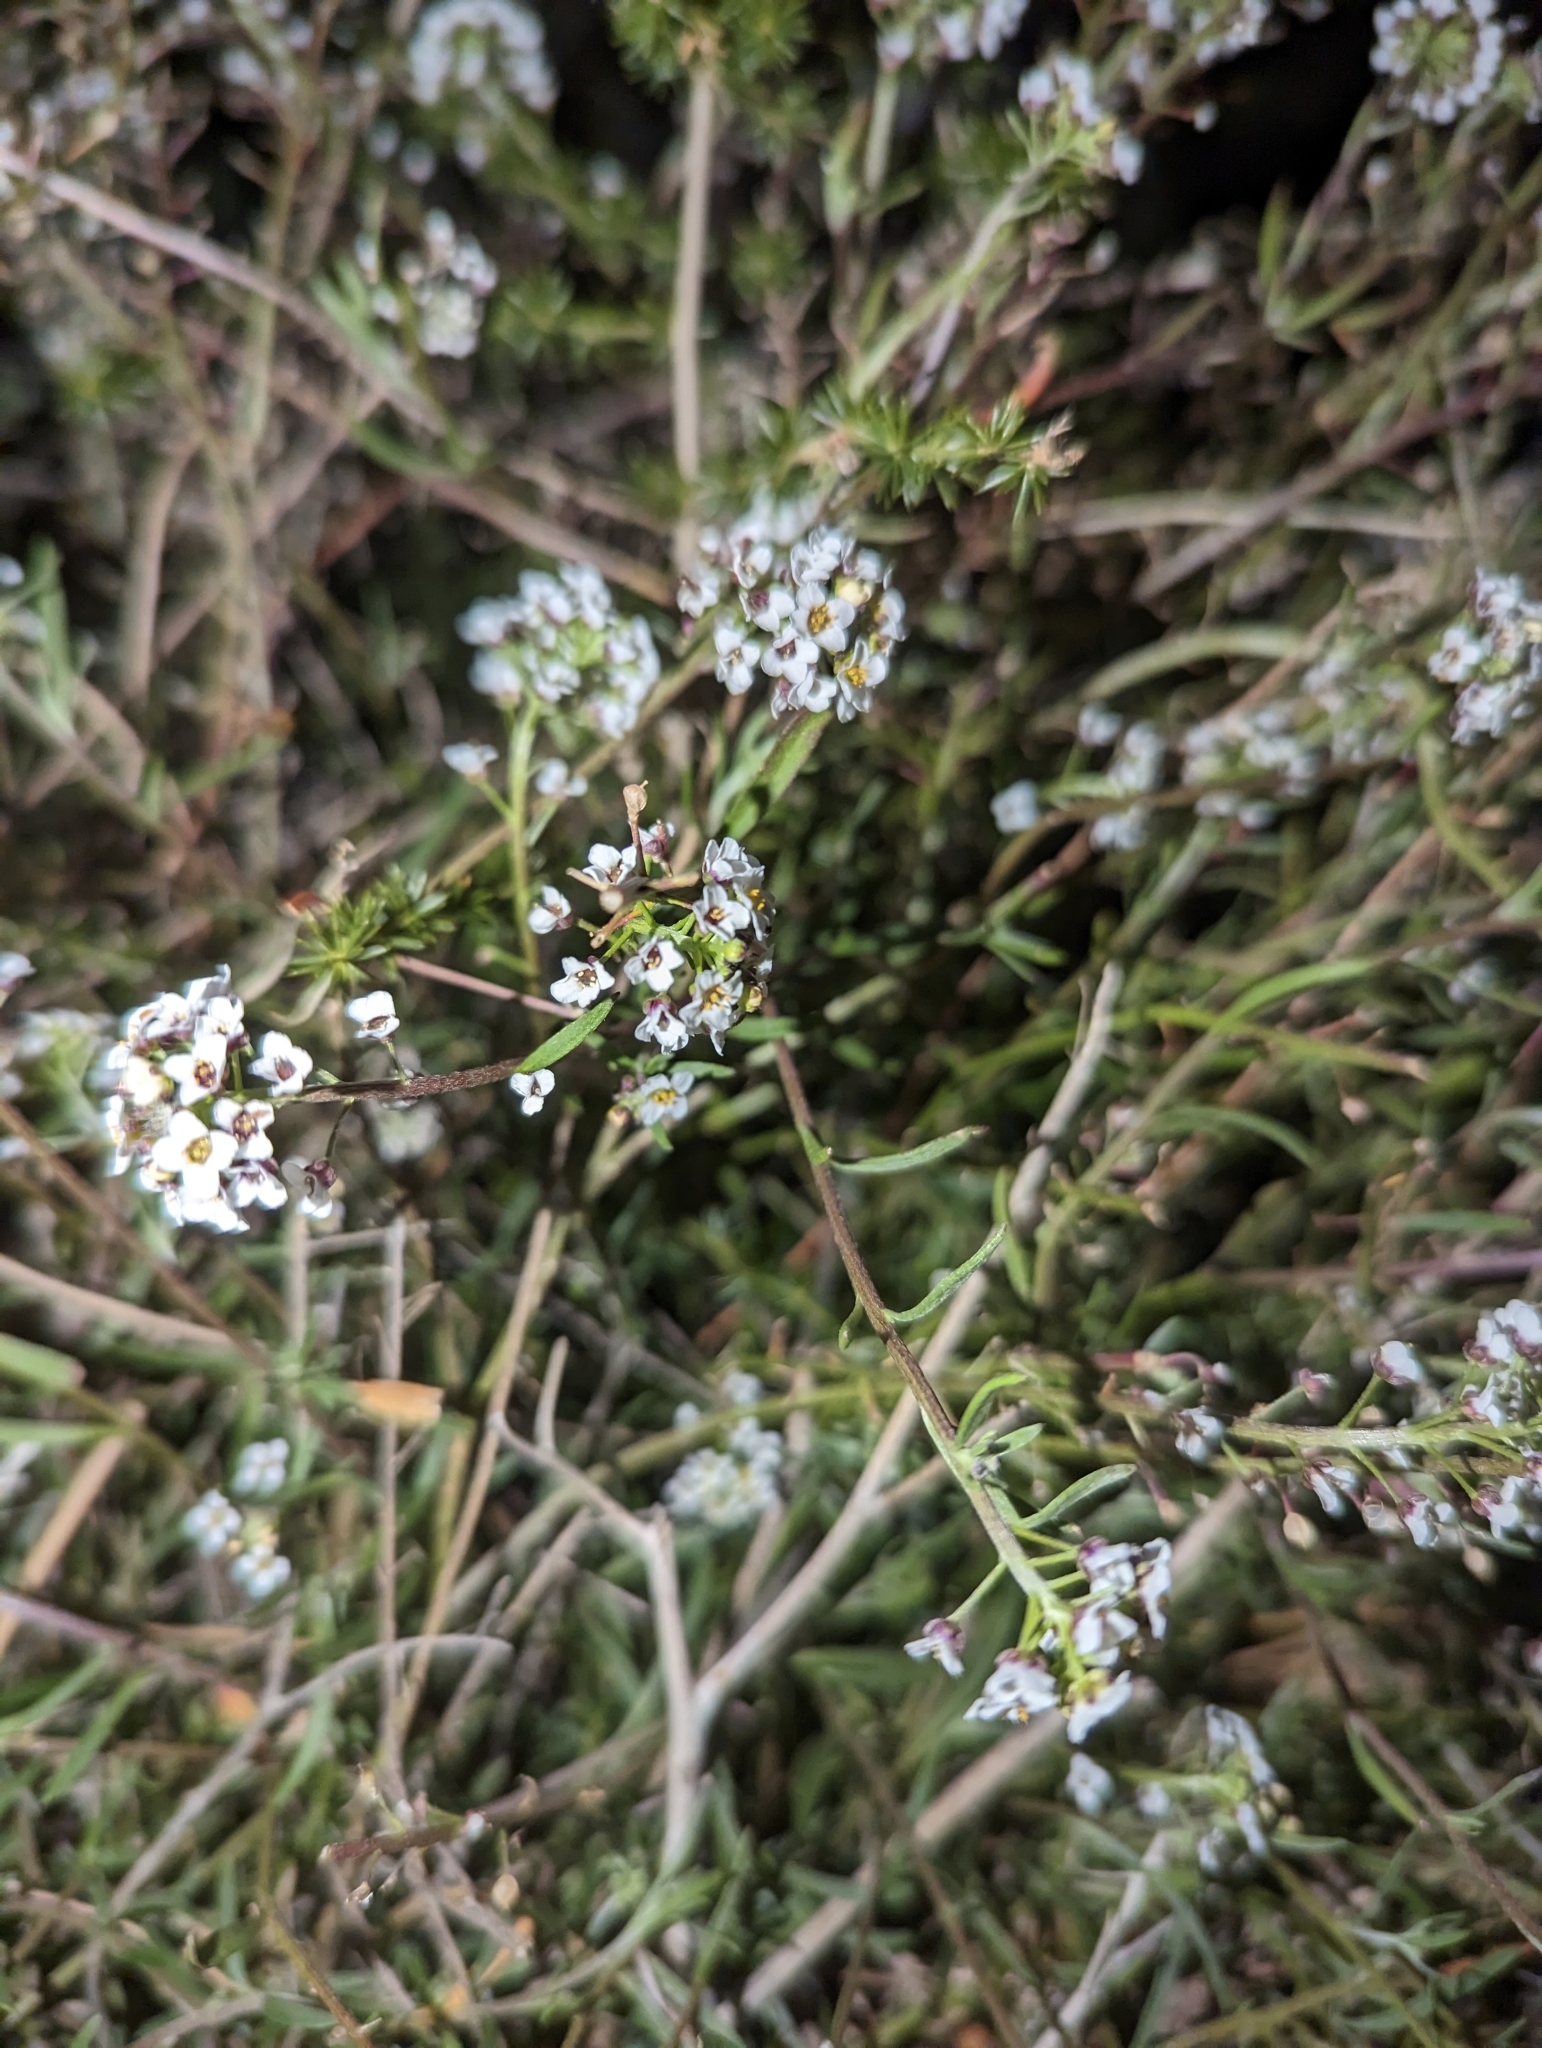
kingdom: Plantae
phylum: Tracheophyta
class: Magnoliopsida
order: Brassicales
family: Brassicaceae
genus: Lobularia
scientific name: Lobularia maritima
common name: Sweet alison
